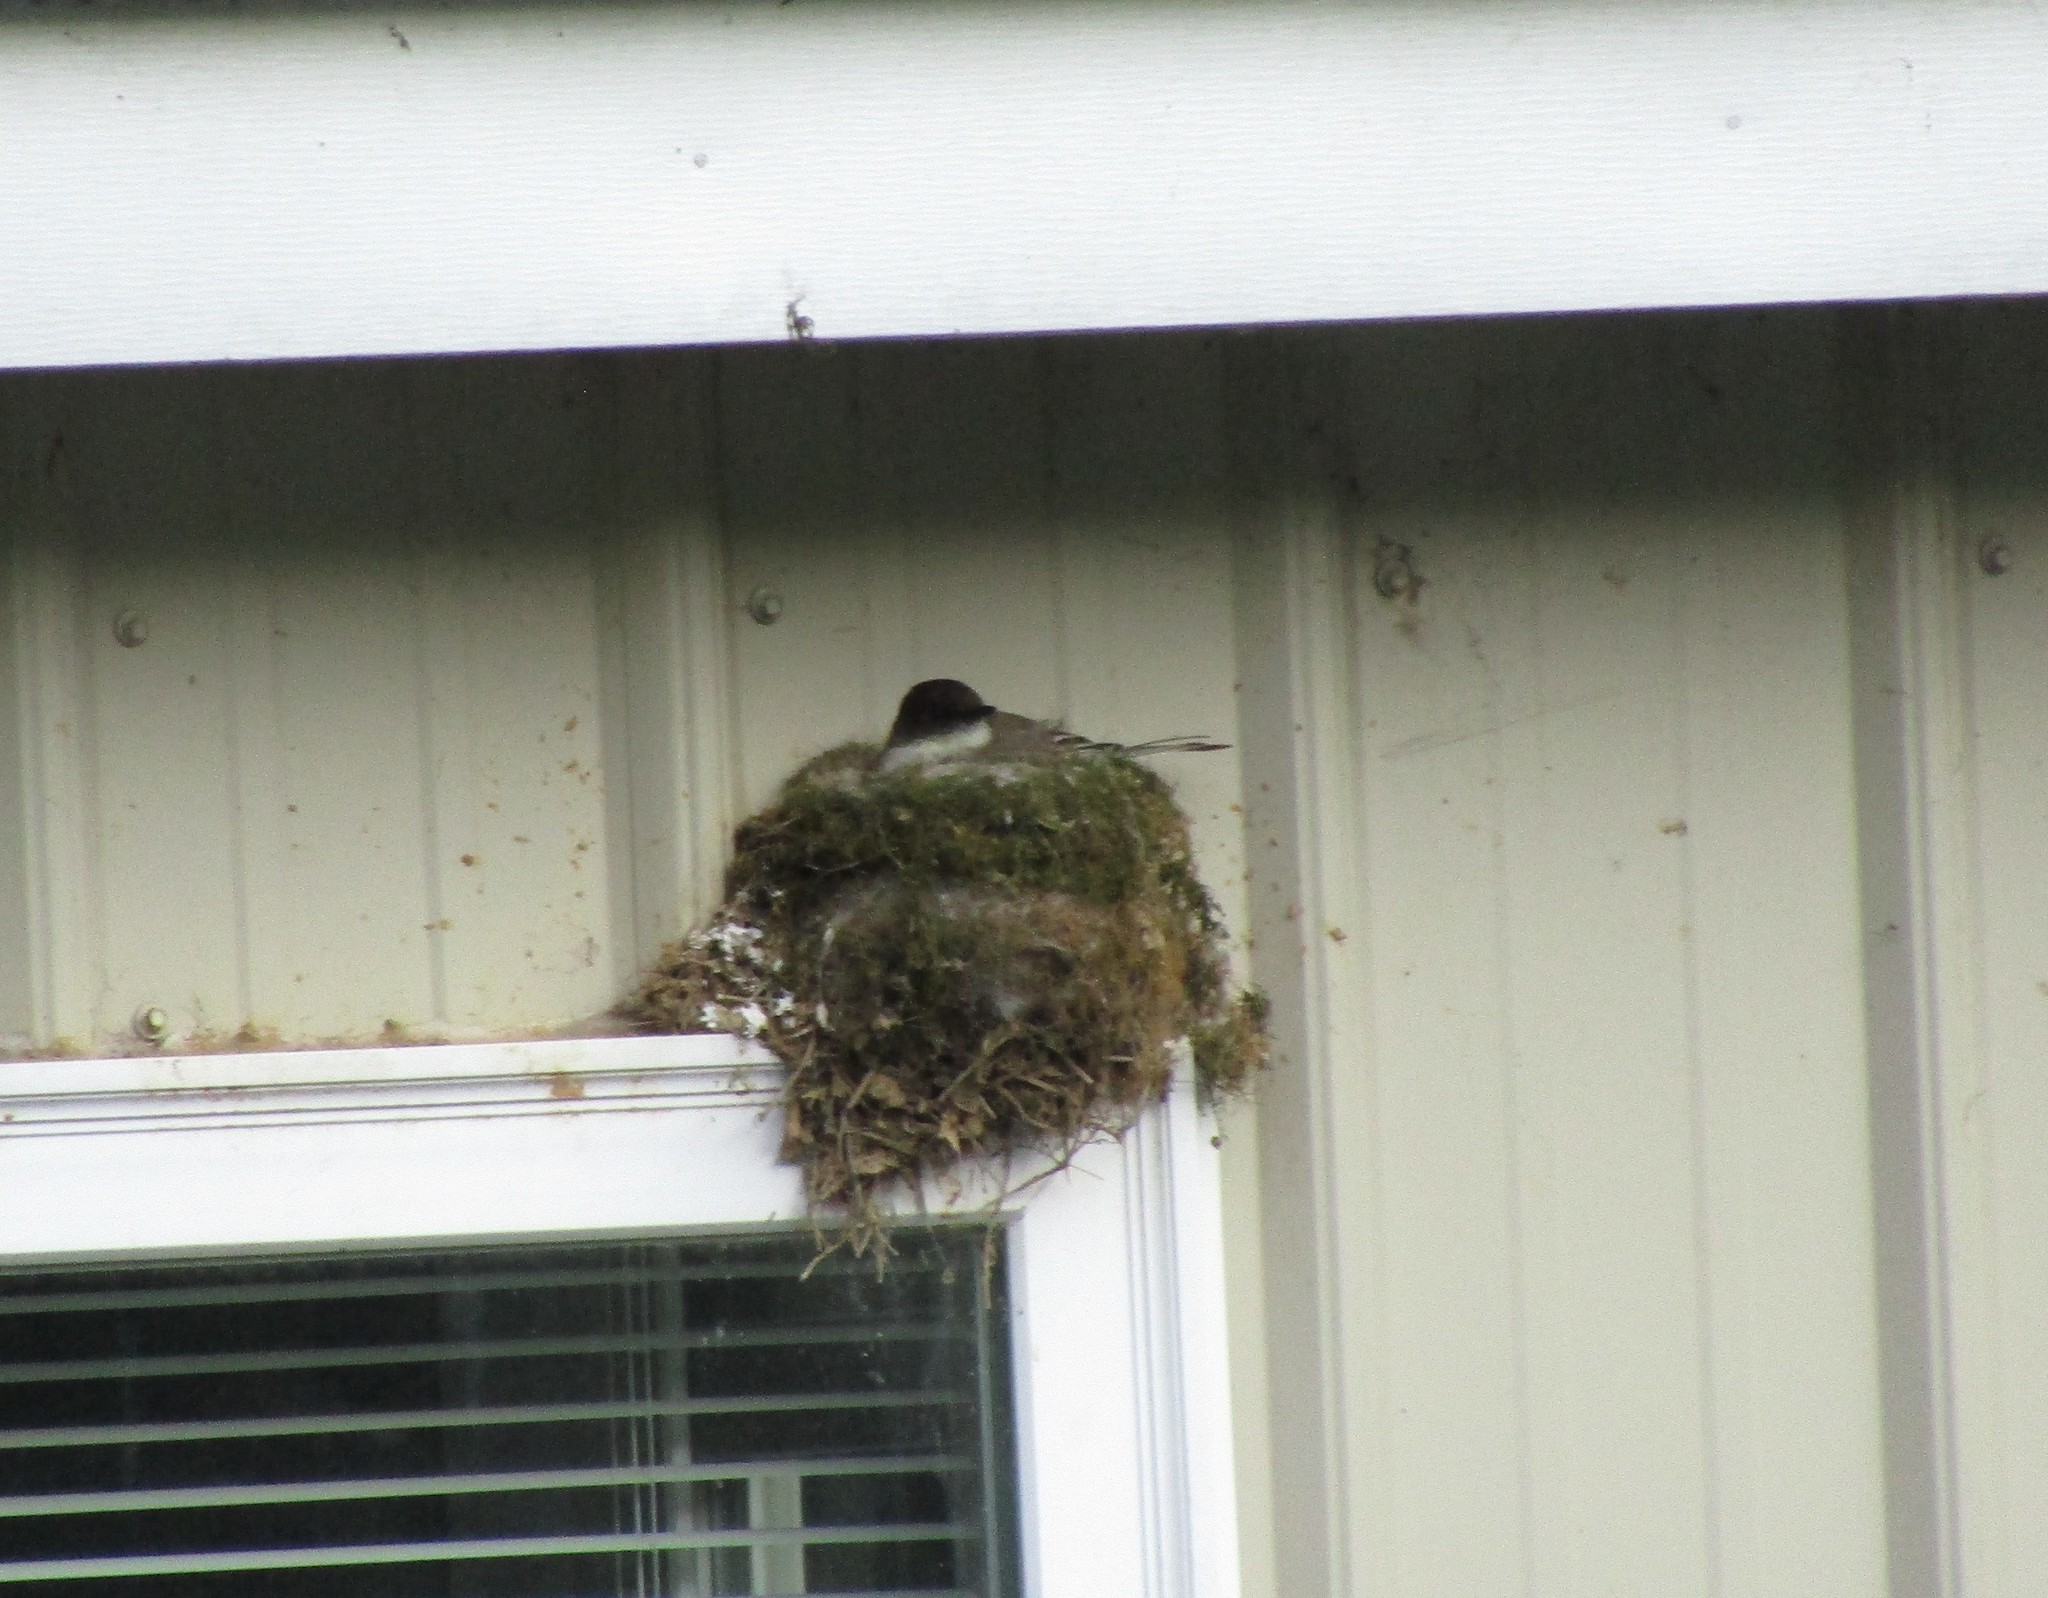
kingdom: Animalia
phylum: Chordata
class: Aves
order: Passeriformes
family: Tyrannidae
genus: Sayornis
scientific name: Sayornis phoebe
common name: Eastern phoebe
